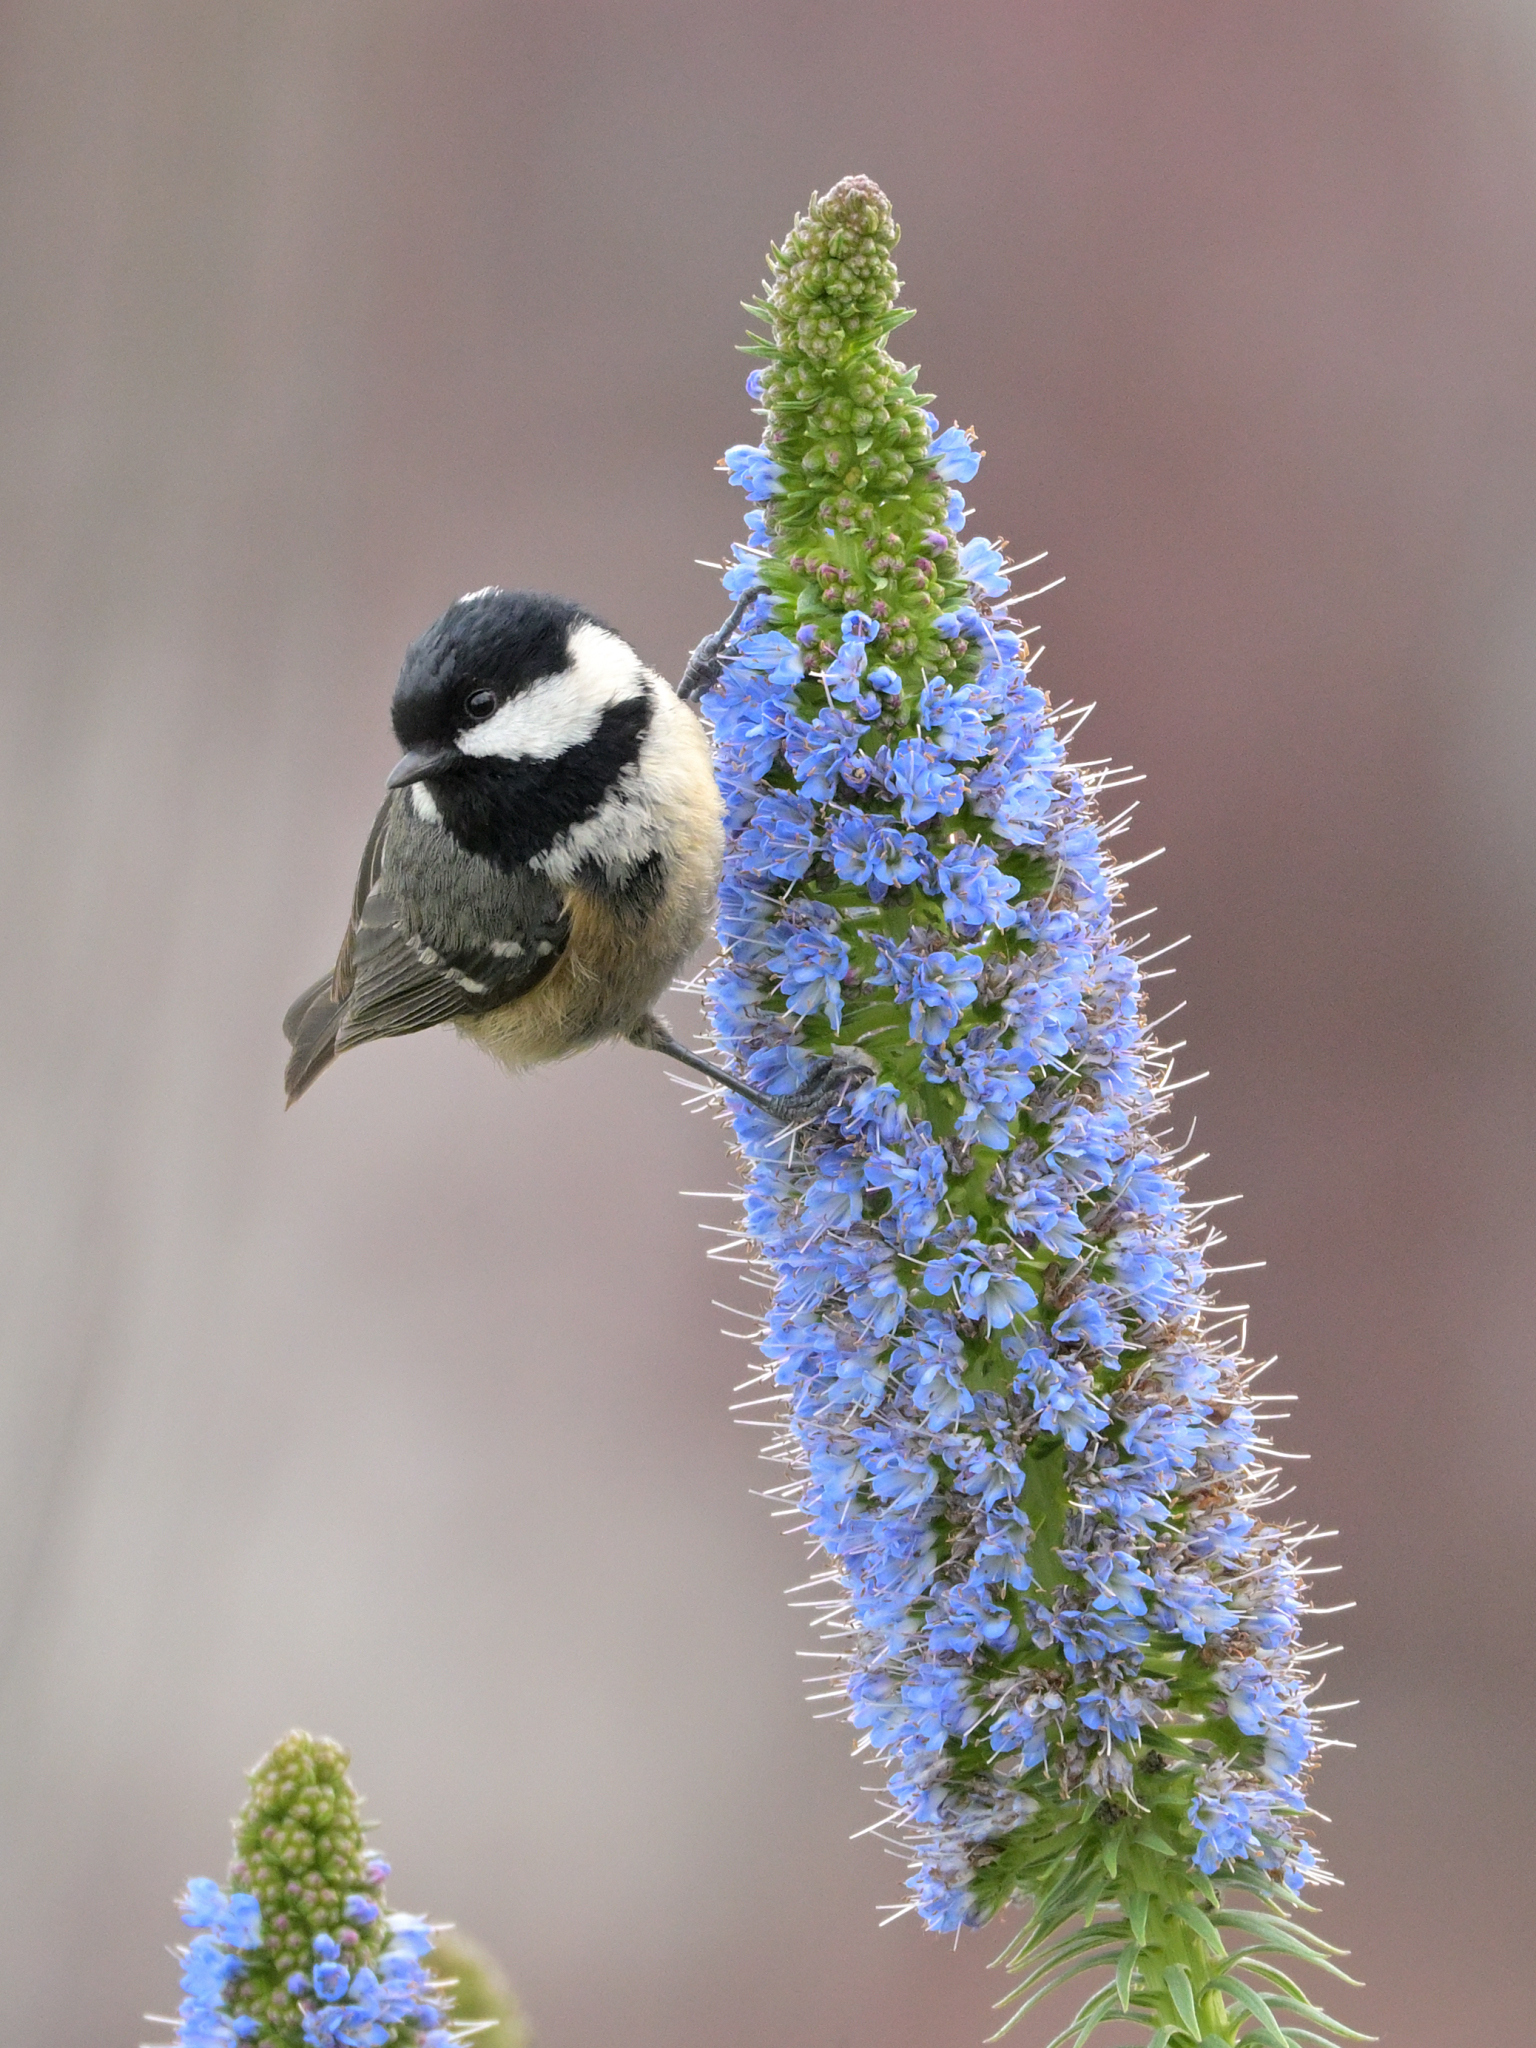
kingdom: Animalia
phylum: Chordata
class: Aves
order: Passeriformes
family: Paridae
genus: Periparus
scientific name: Periparus ater
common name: Coal tit
